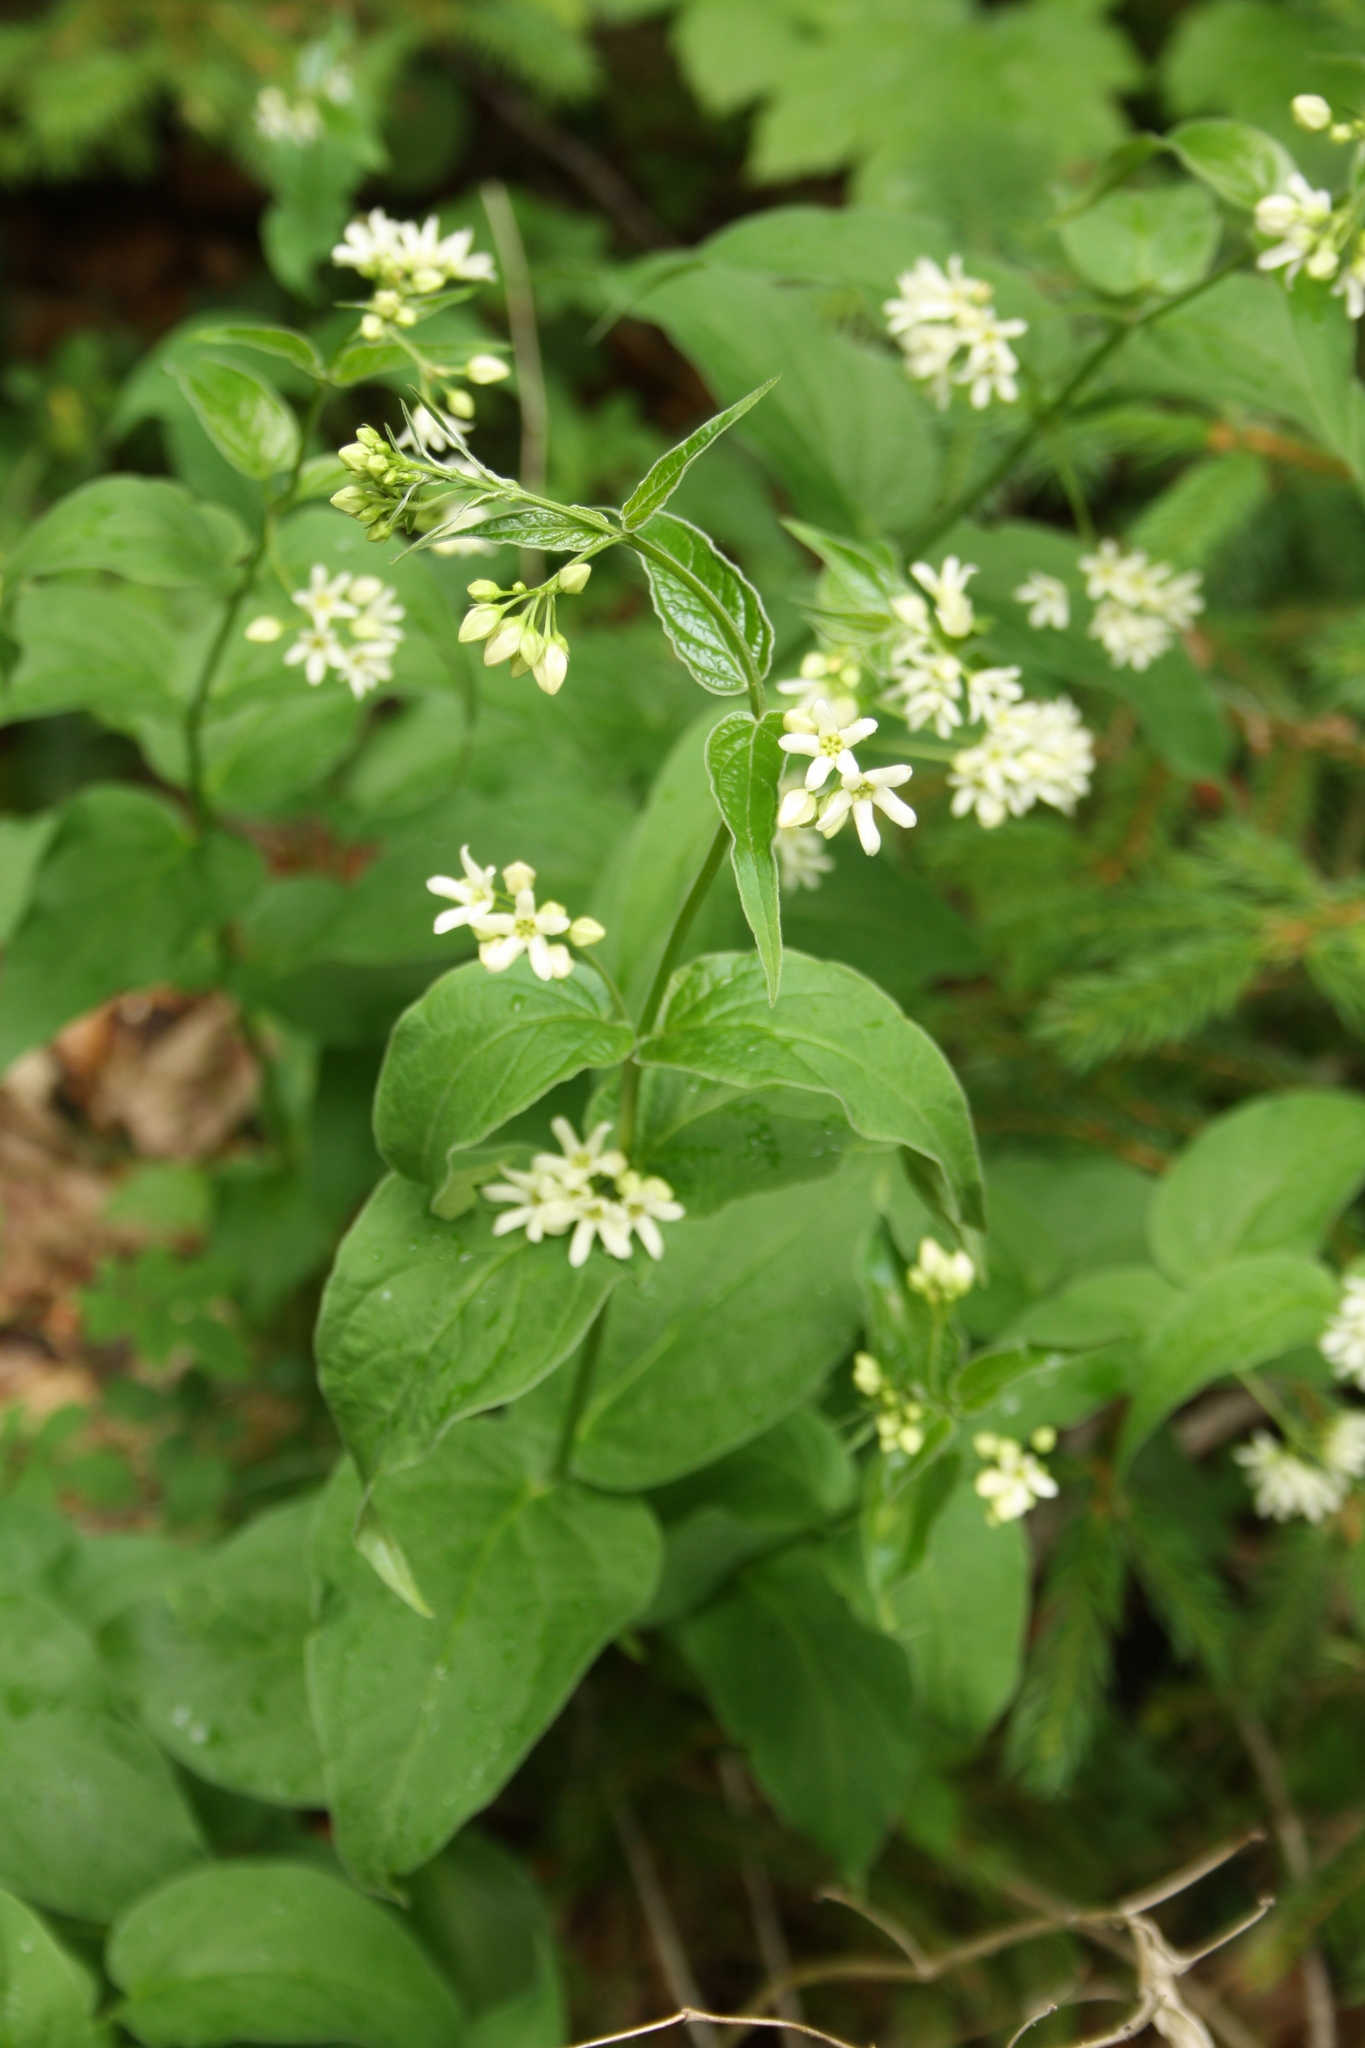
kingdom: Plantae
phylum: Tracheophyta
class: Magnoliopsida
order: Gentianales
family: Apocynaceae
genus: Vincetoxicum
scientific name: Vincetoxicum hirundinaria
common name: White swallowwort
